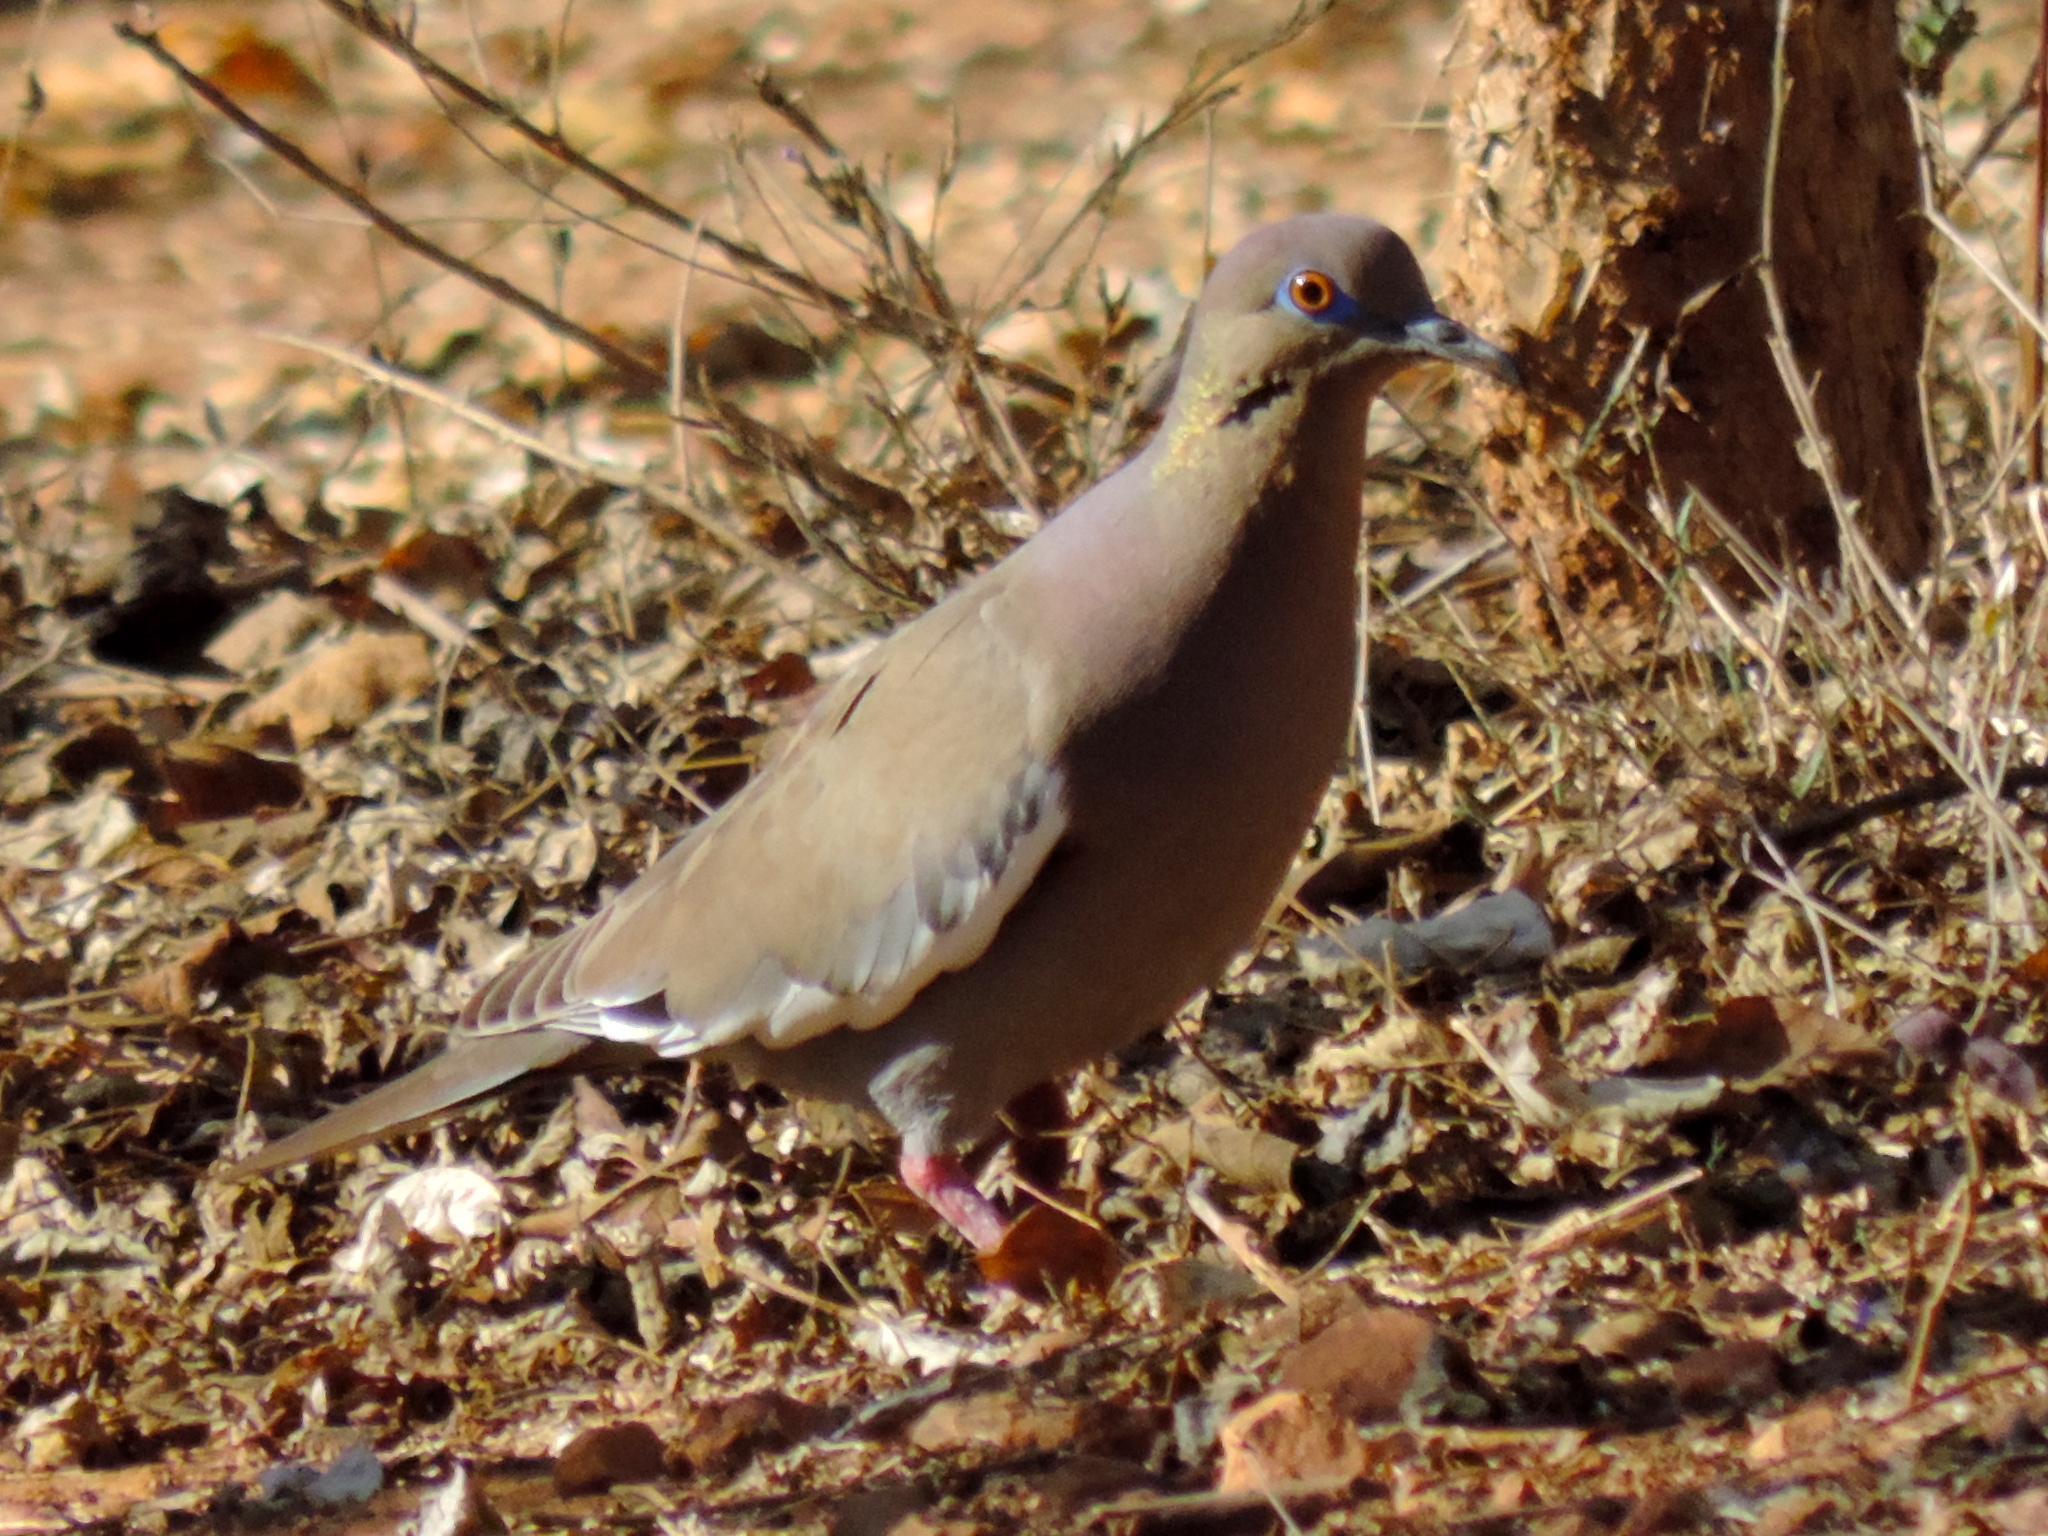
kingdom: Animalia
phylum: Chordata
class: Aves
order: Columbiformes
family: Columbidae
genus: Zenaida
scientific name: Zenaida asiatica
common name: White-winged dove
